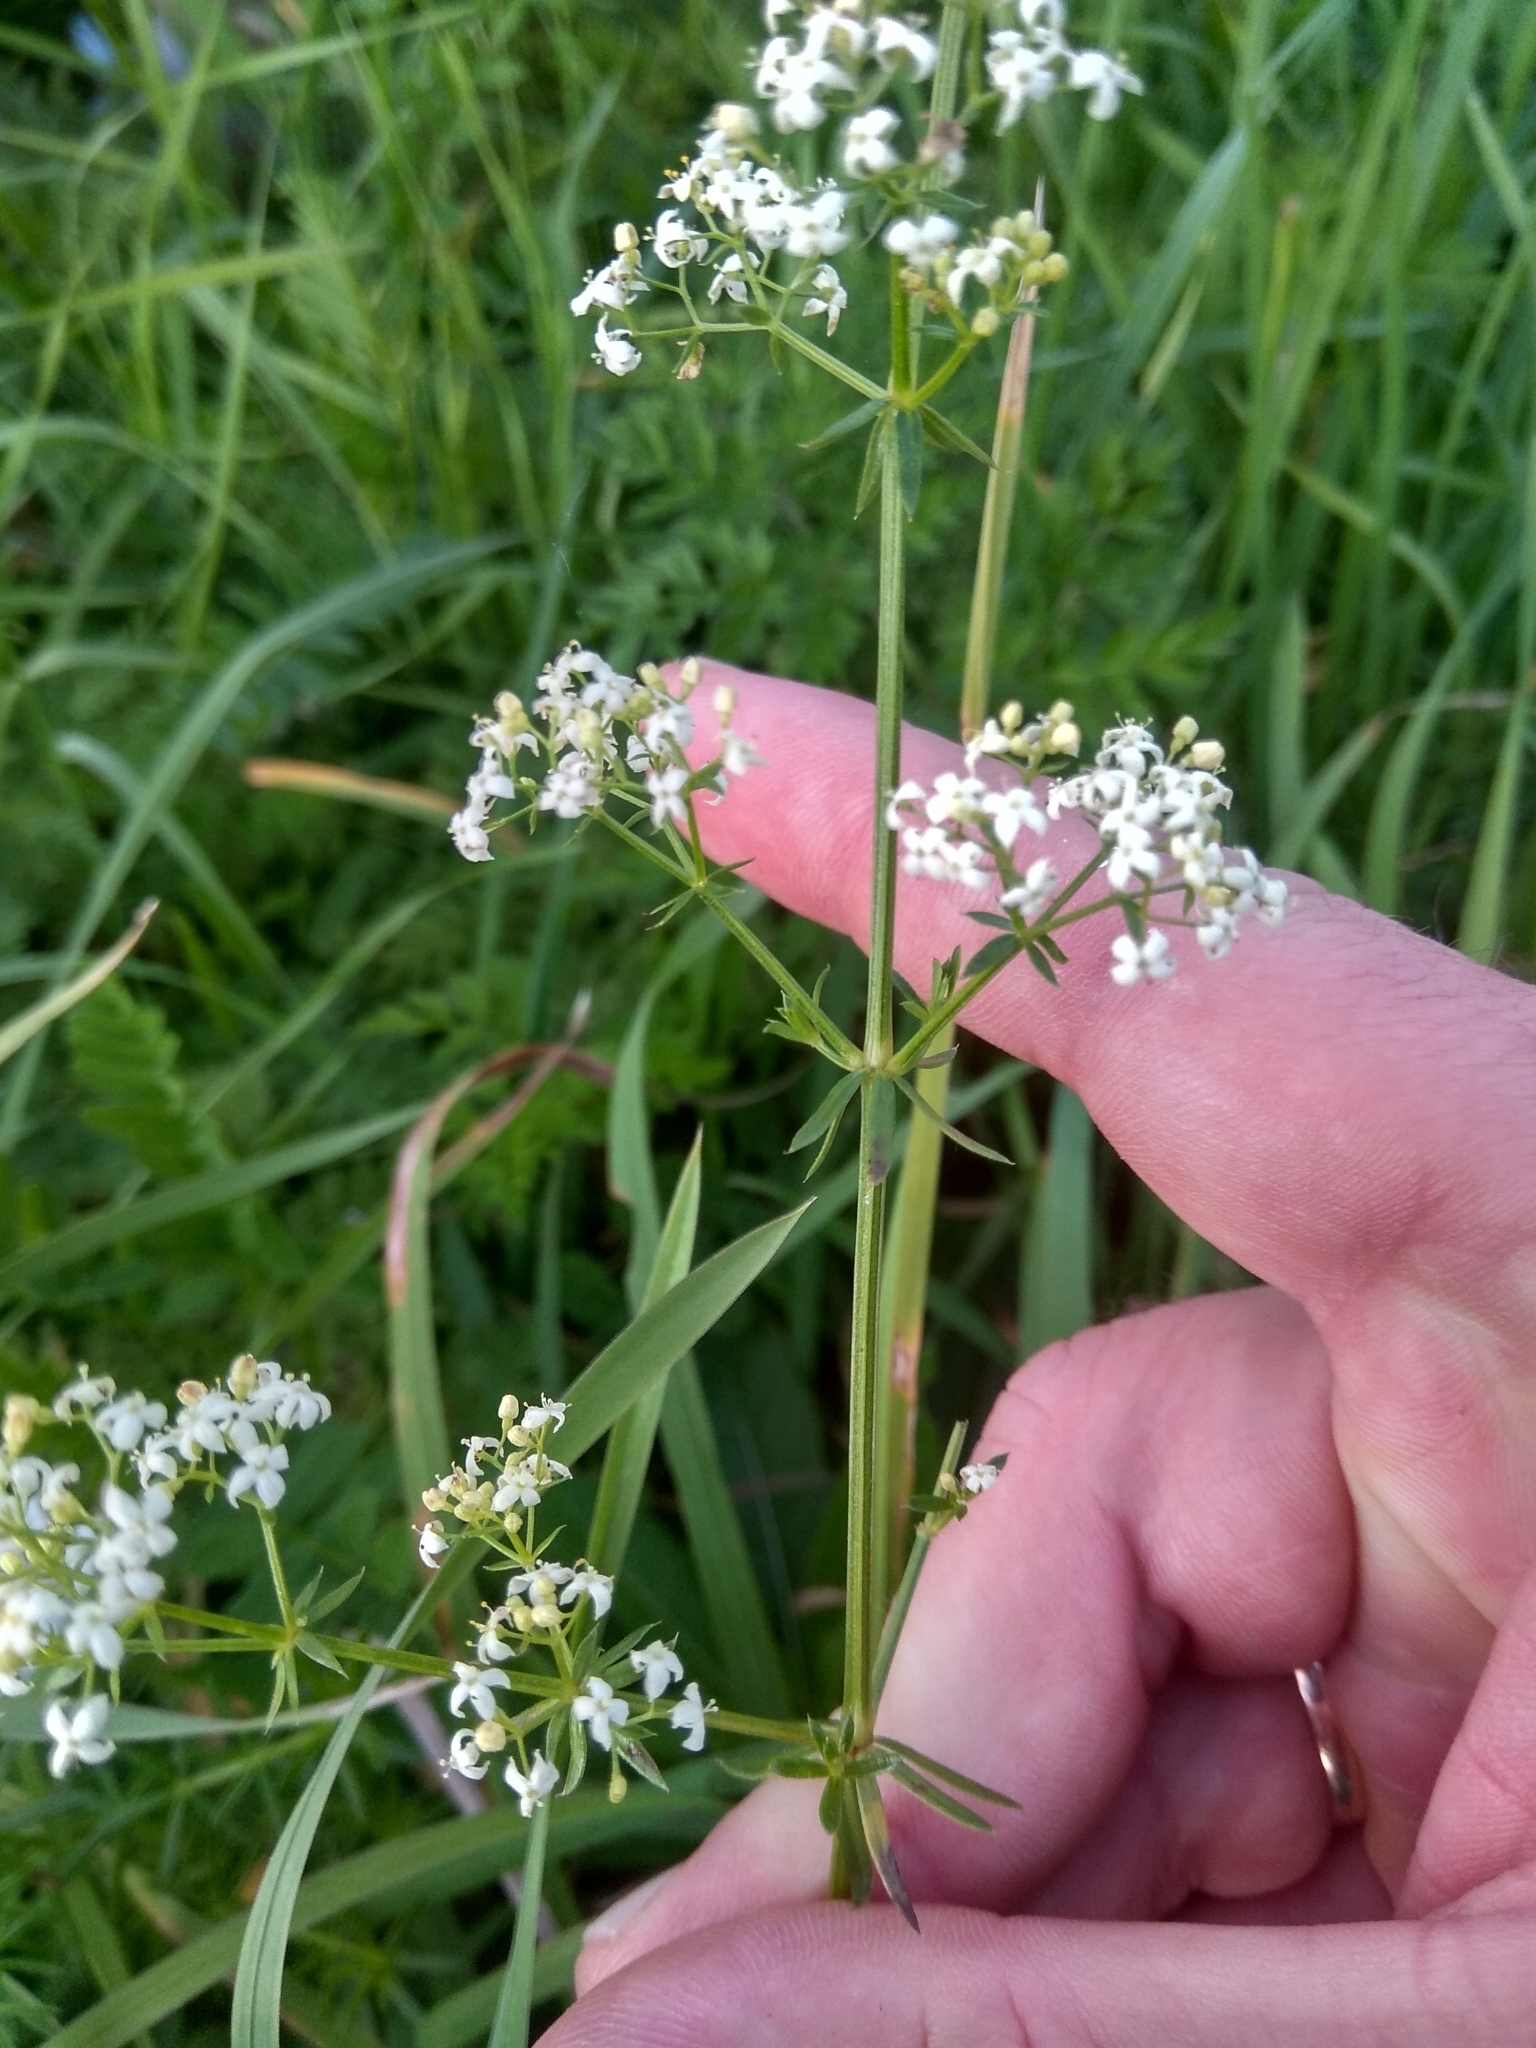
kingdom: Plantae
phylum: Tracheophyta
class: Magnoliopsida
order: Gentianales
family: Rubiaceae
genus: Galium
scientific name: Galium mollugo
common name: Hedge bedstraw
